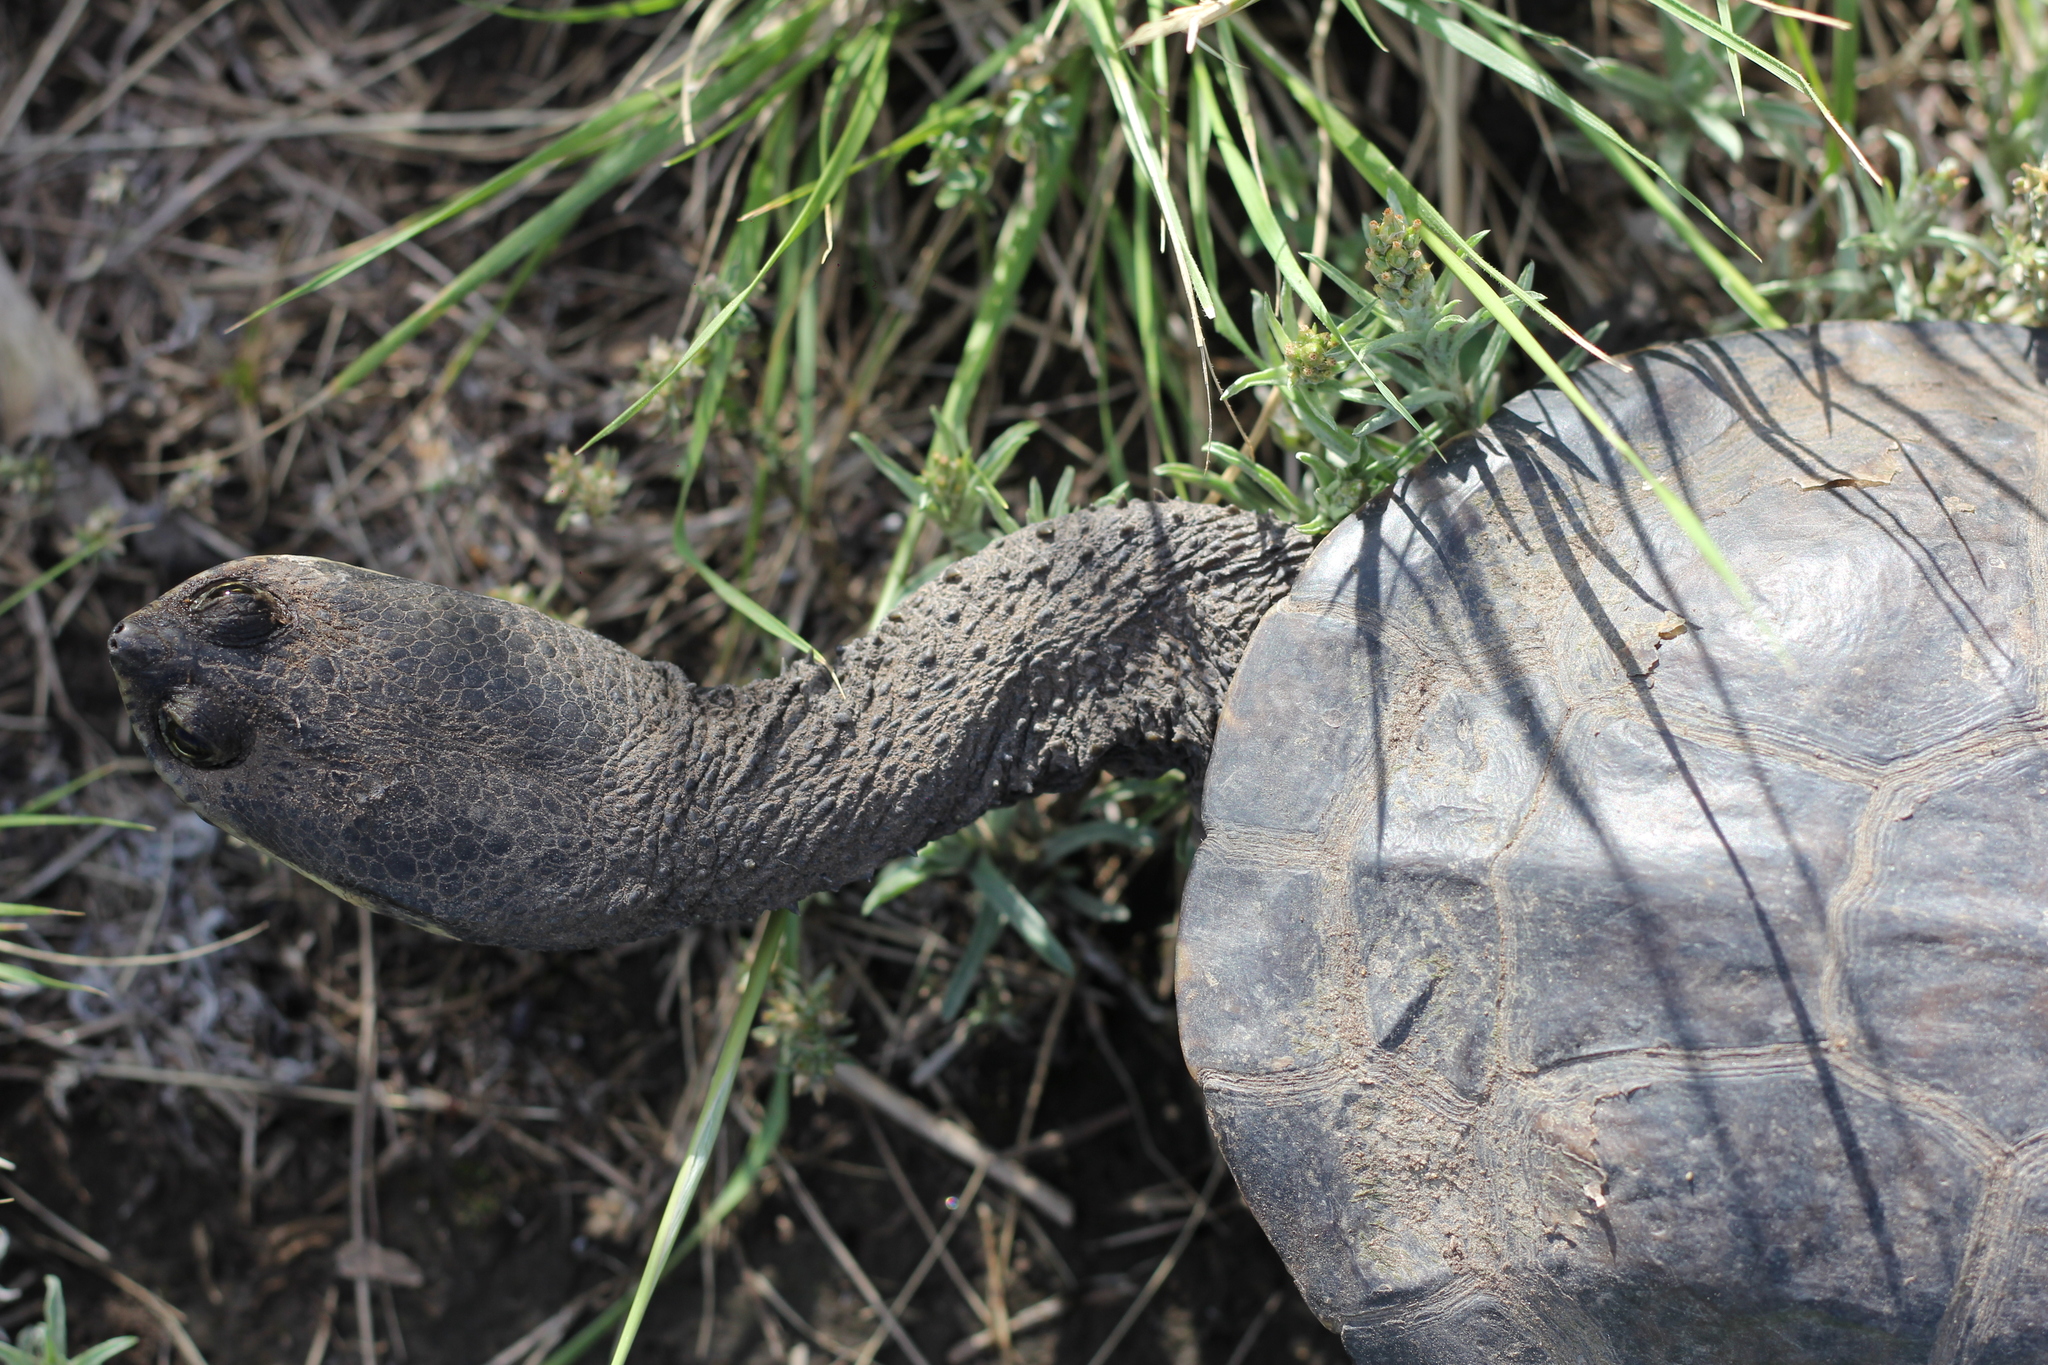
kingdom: Animalia
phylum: Chordata
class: Testudines
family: Chelidae
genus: Hydromedusa
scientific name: Hydromedusa tectifera
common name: Argentine snake-necked turtle
